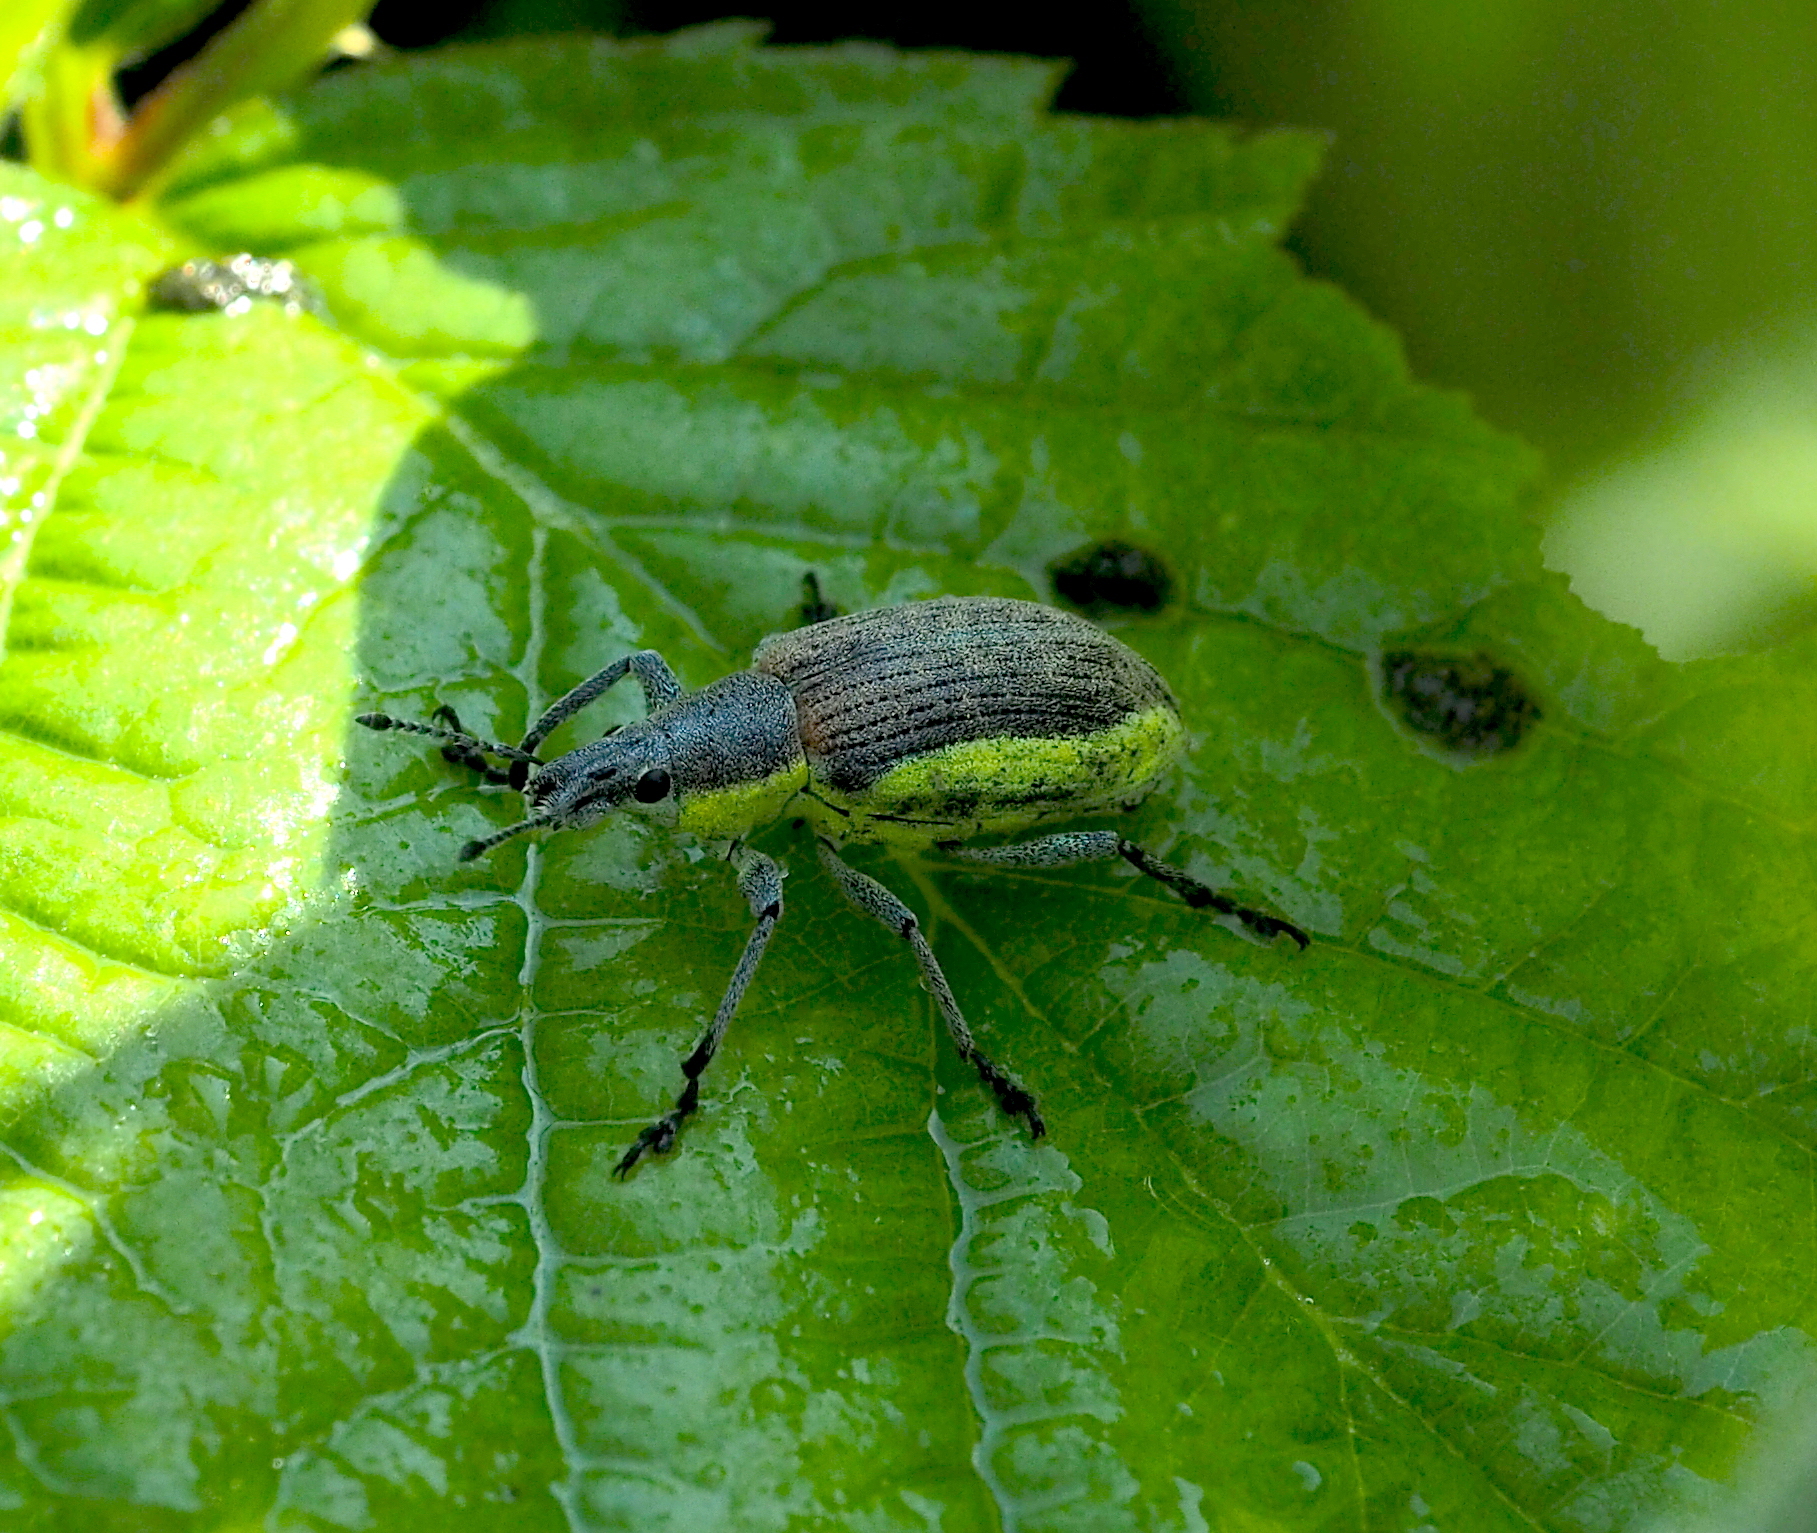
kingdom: Animalia
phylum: Arthropoda
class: Insecta
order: Coleoptera
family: Curculionidae
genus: Chlorophanus
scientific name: Chlorophanus viridis
